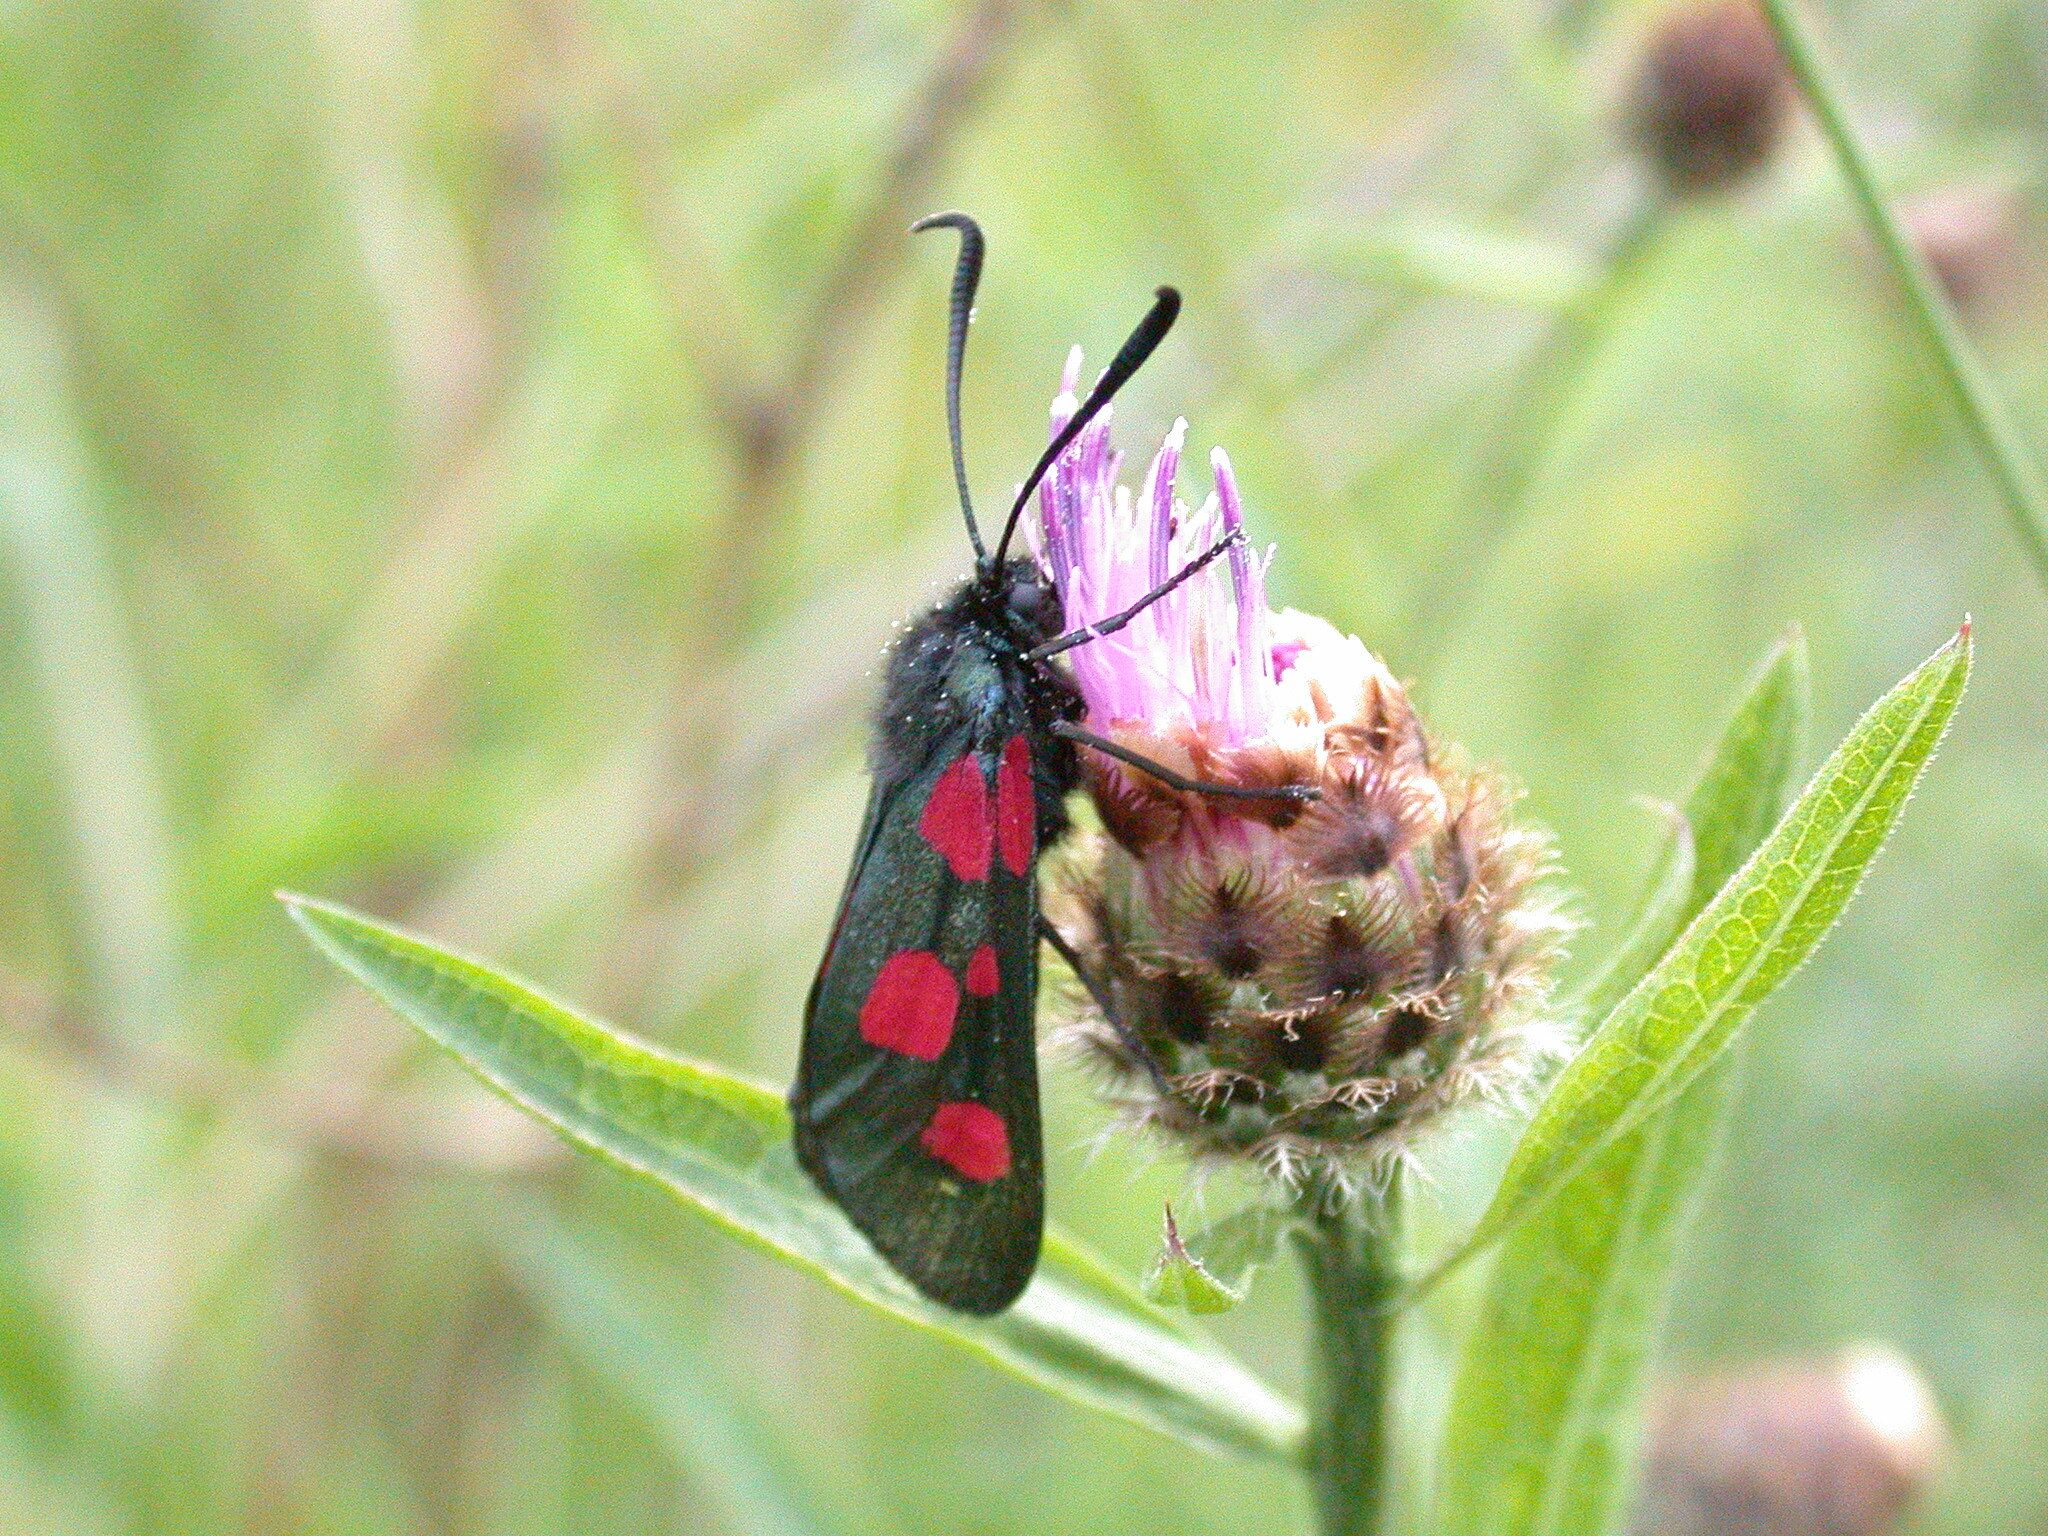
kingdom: Animalia
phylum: Arthropoda
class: Insecta
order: Lepidoptera
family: Zygaenidae
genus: Zygaena
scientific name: Zygaena trifolii
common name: Five-spot burnet
